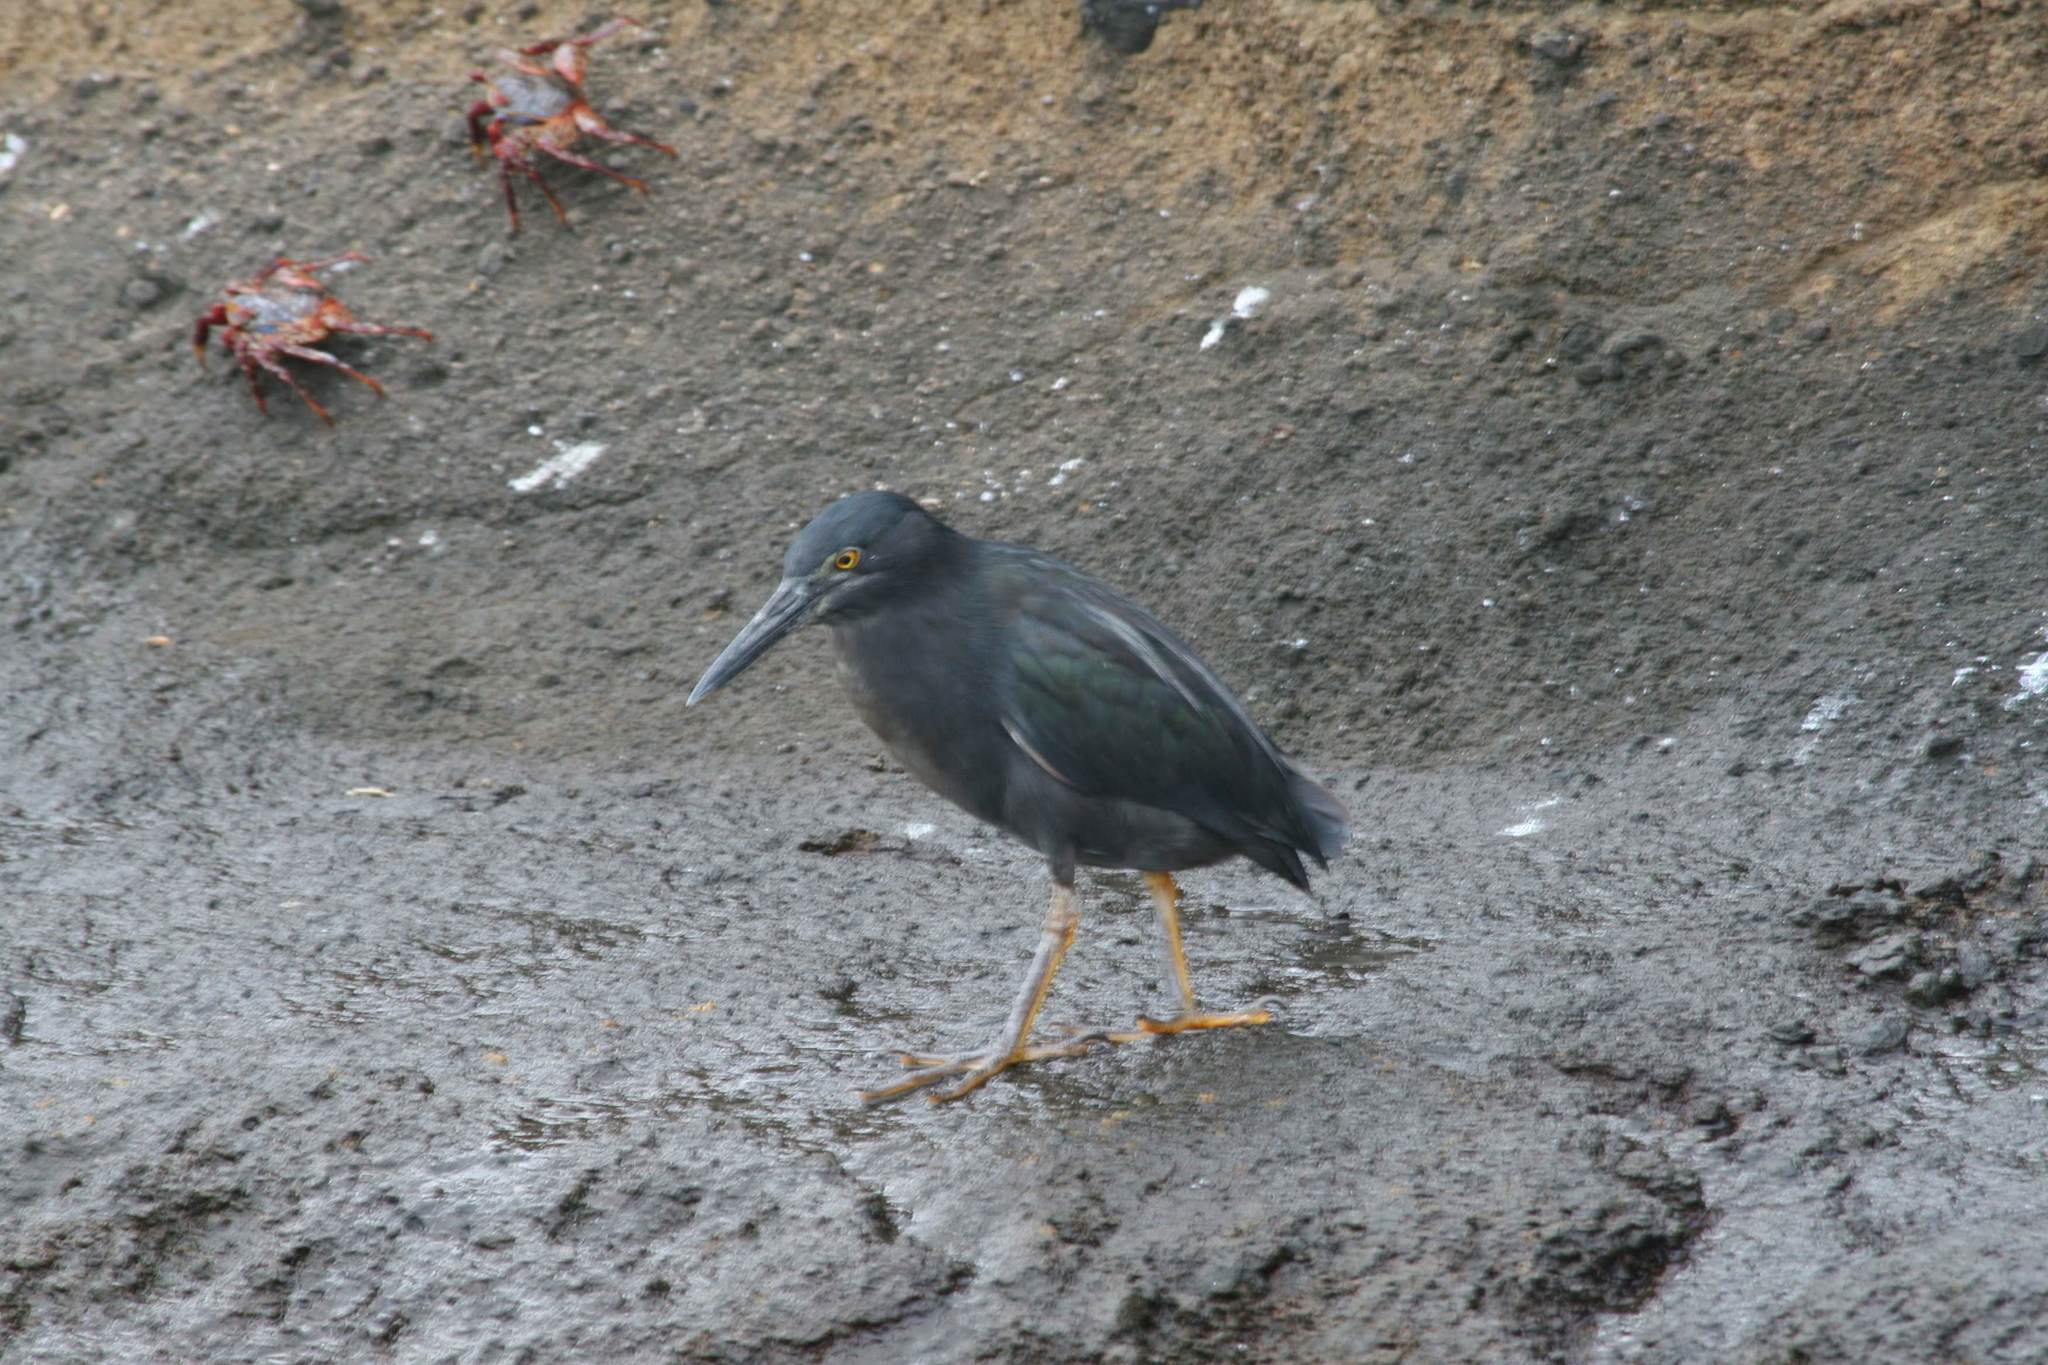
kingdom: Animalia
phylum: Chordata
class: Aves
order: Pelecaniformes
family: Ardeidae
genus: Butorides
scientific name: Butorides striata
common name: Striated heron
